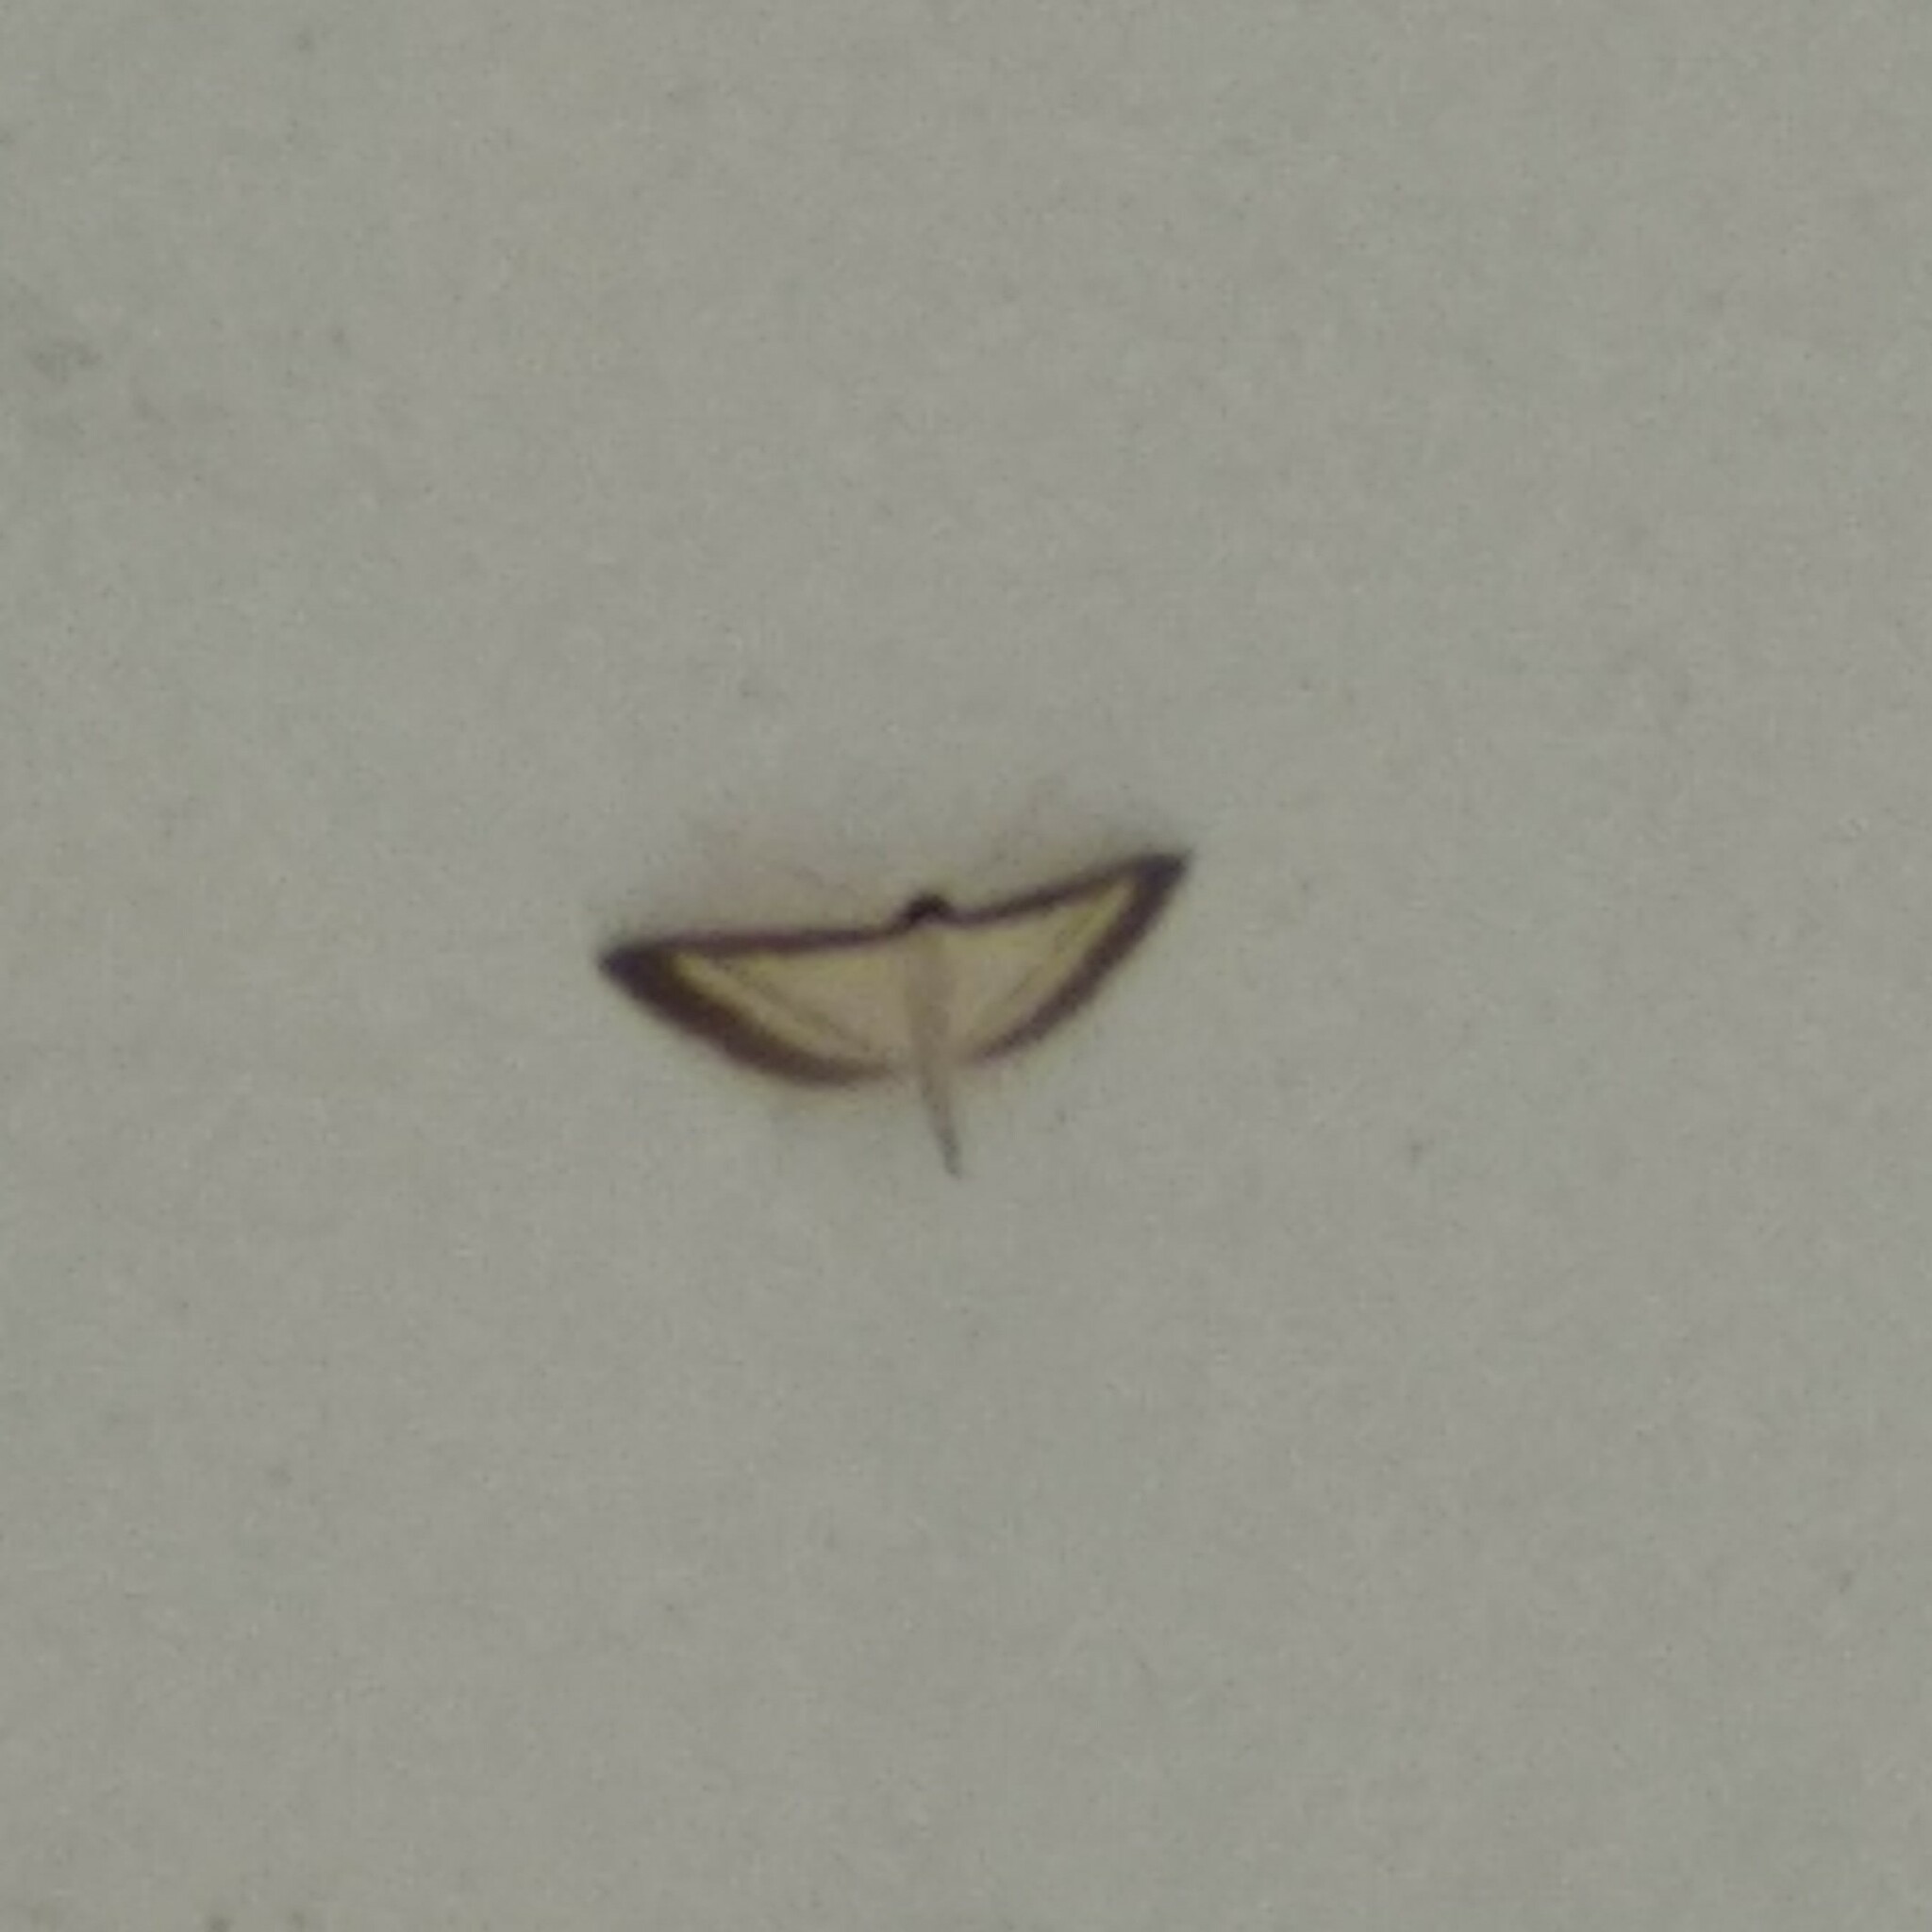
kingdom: Animalia
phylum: Arthropoda
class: Insecta
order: Lepidoptera
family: Crambidae
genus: Bradina
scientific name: Bradina diagonalis
